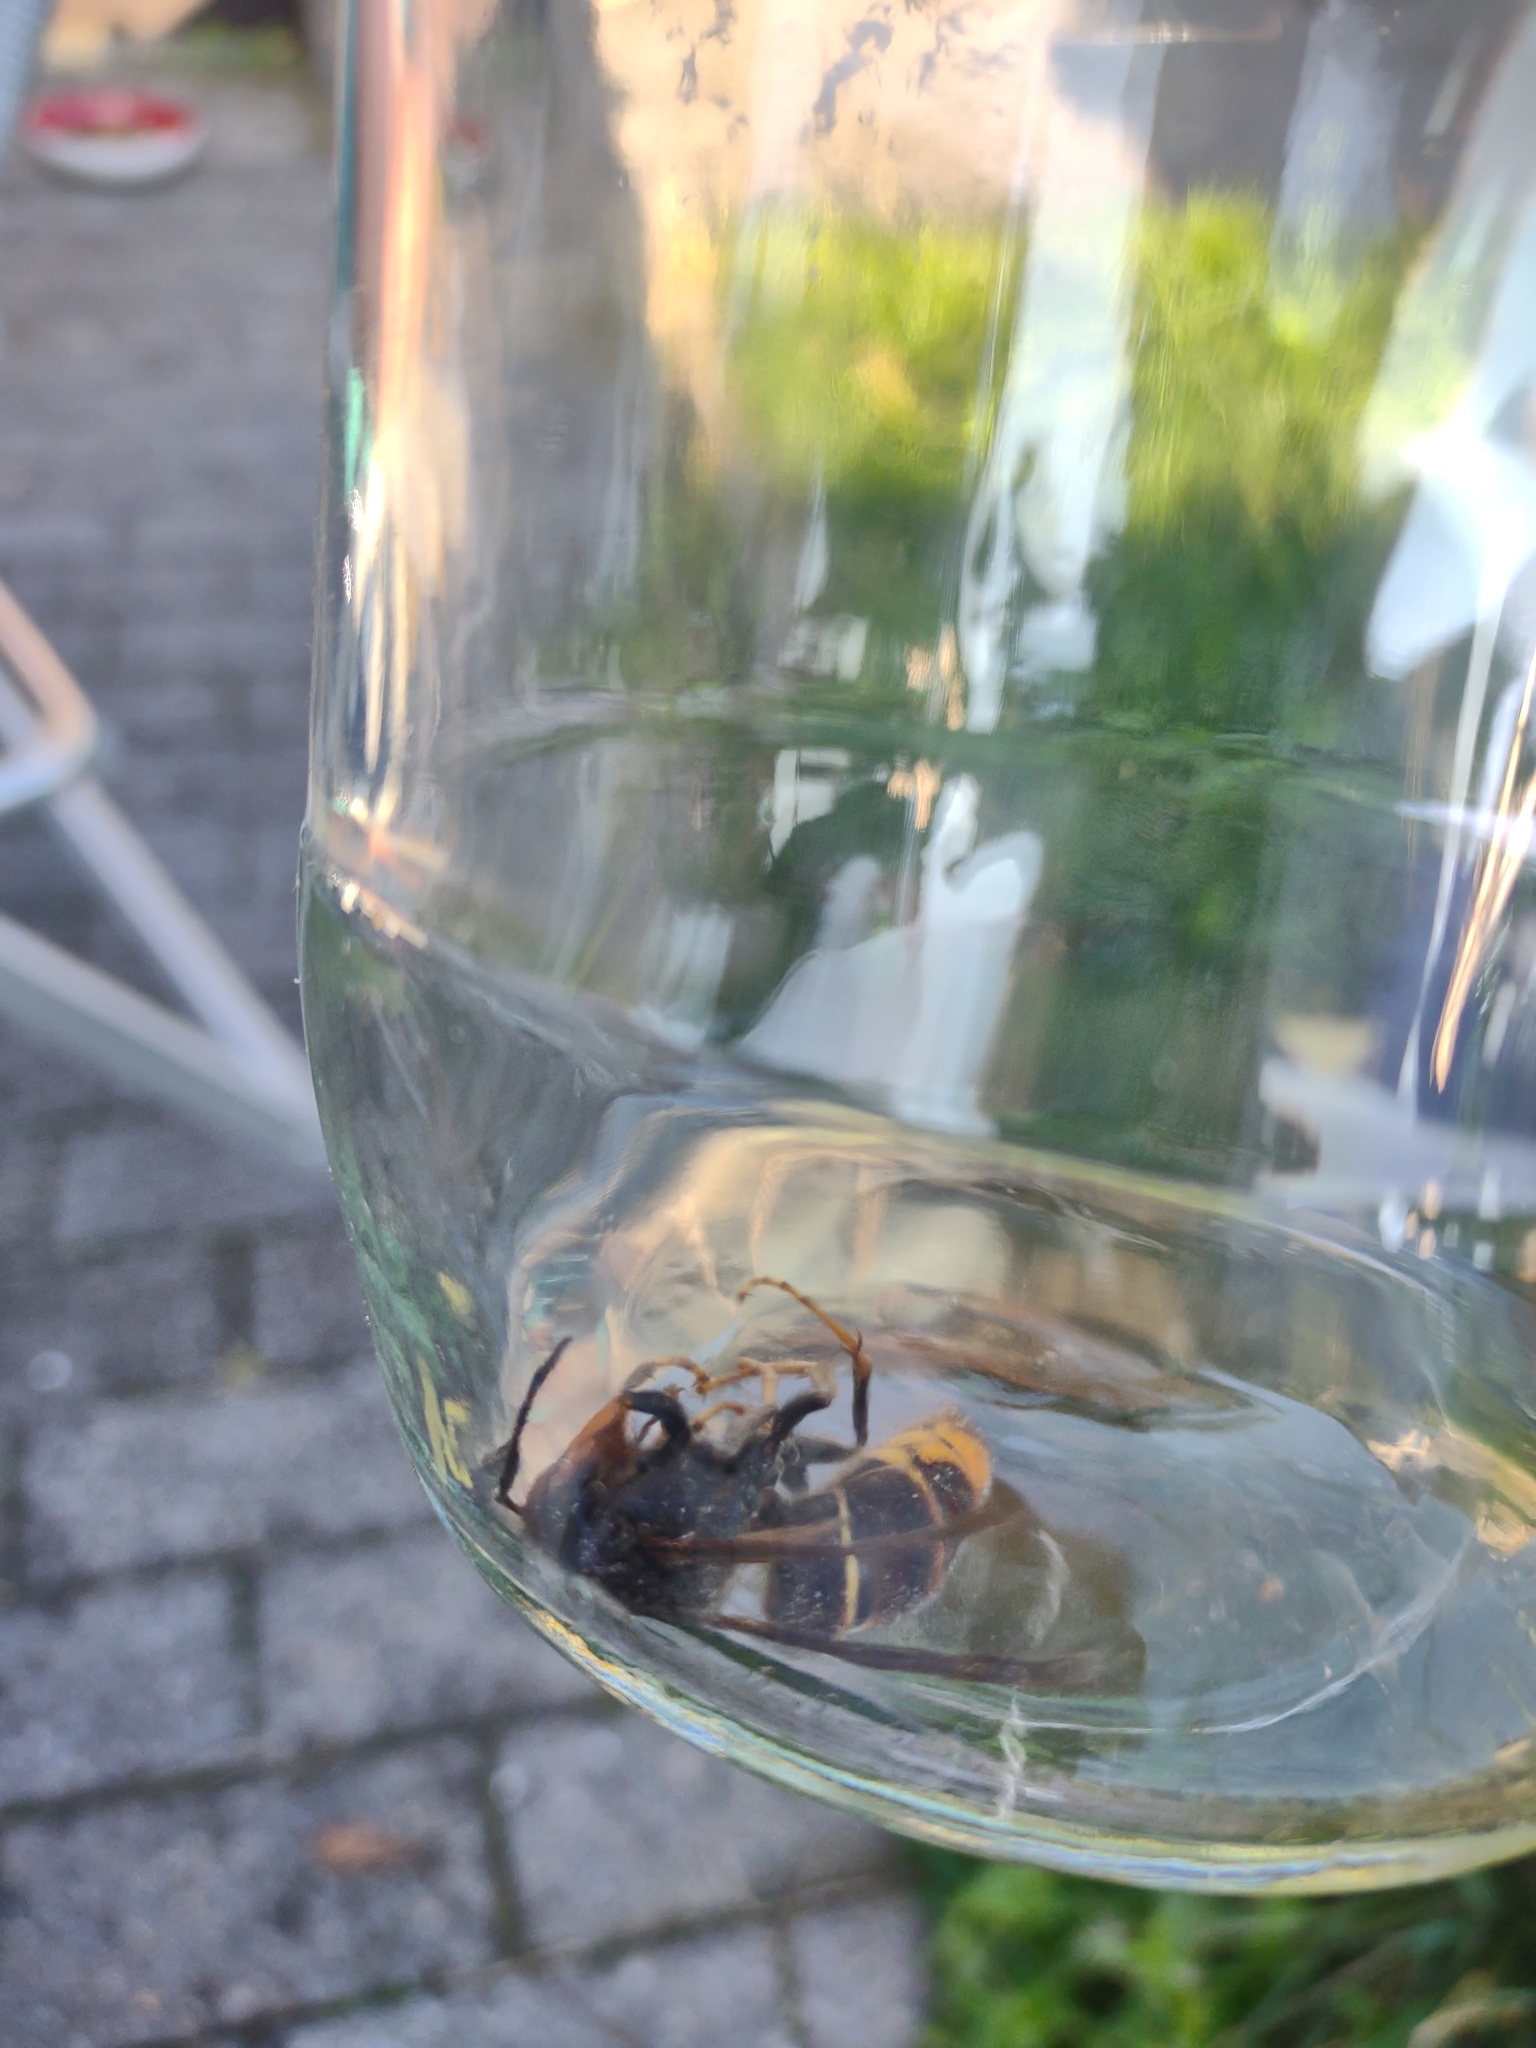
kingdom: Animalia
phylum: Arthropoda
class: Insecta
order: Hymenoptera
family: Vespidae
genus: Vespa
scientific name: Vespa velutina
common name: Asian hornet
